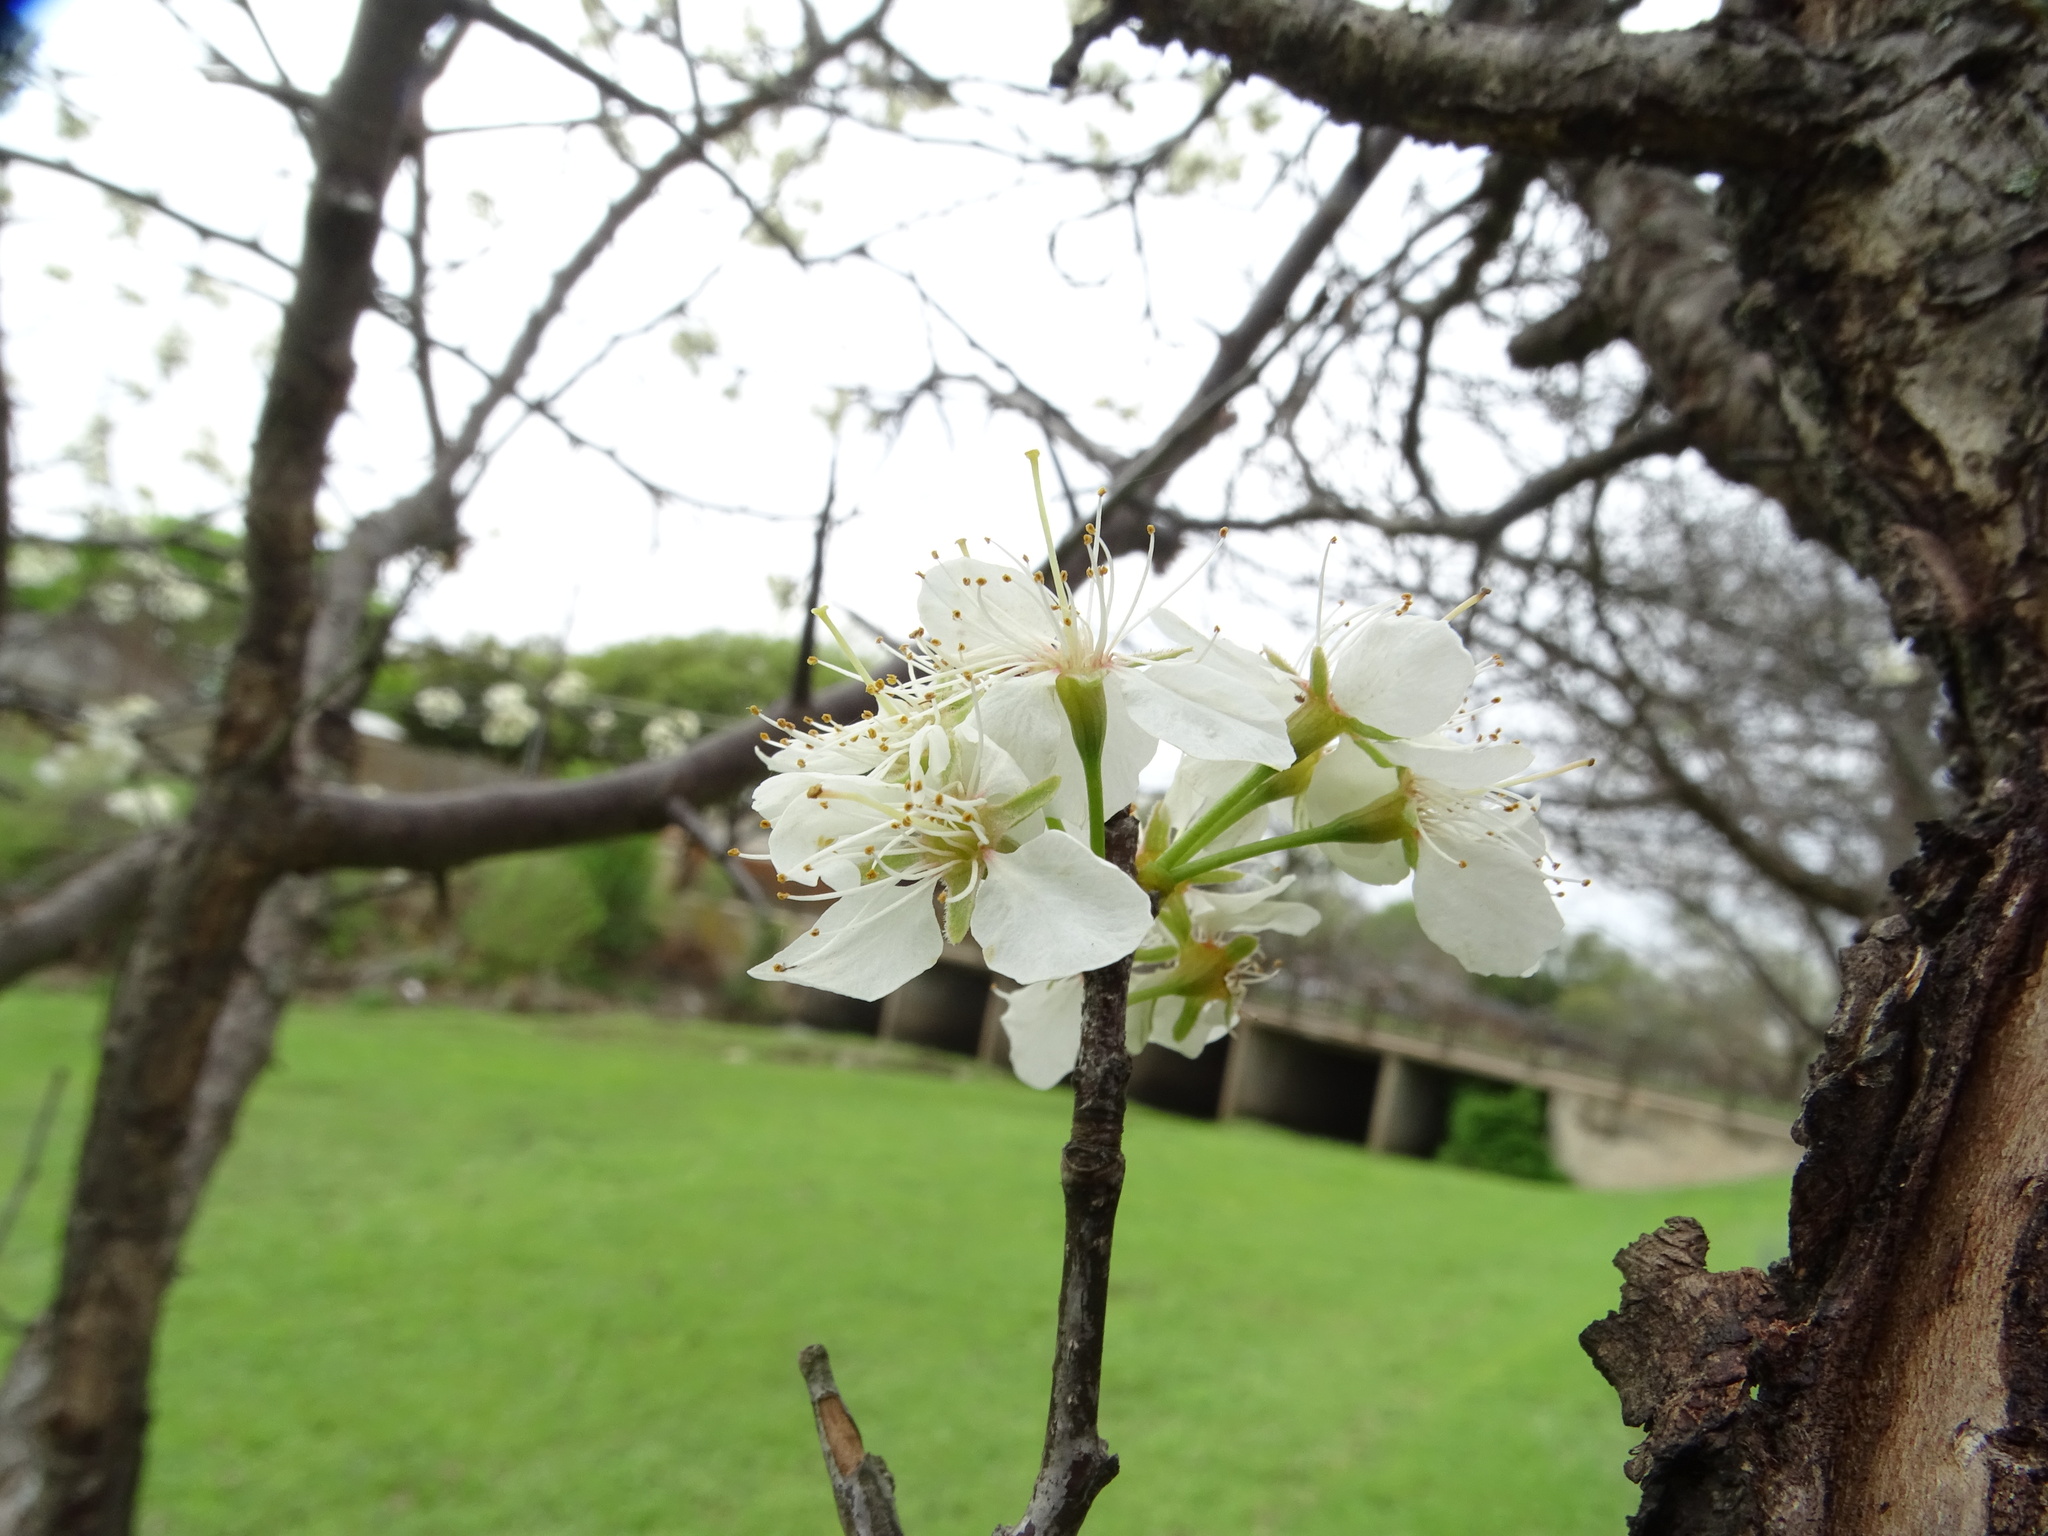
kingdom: Plantae
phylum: Tracheophyta
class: Magnoliopsida
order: Rosales
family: Rosaceae
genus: Prunus
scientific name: Prunus mexicana
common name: Mexican plum
